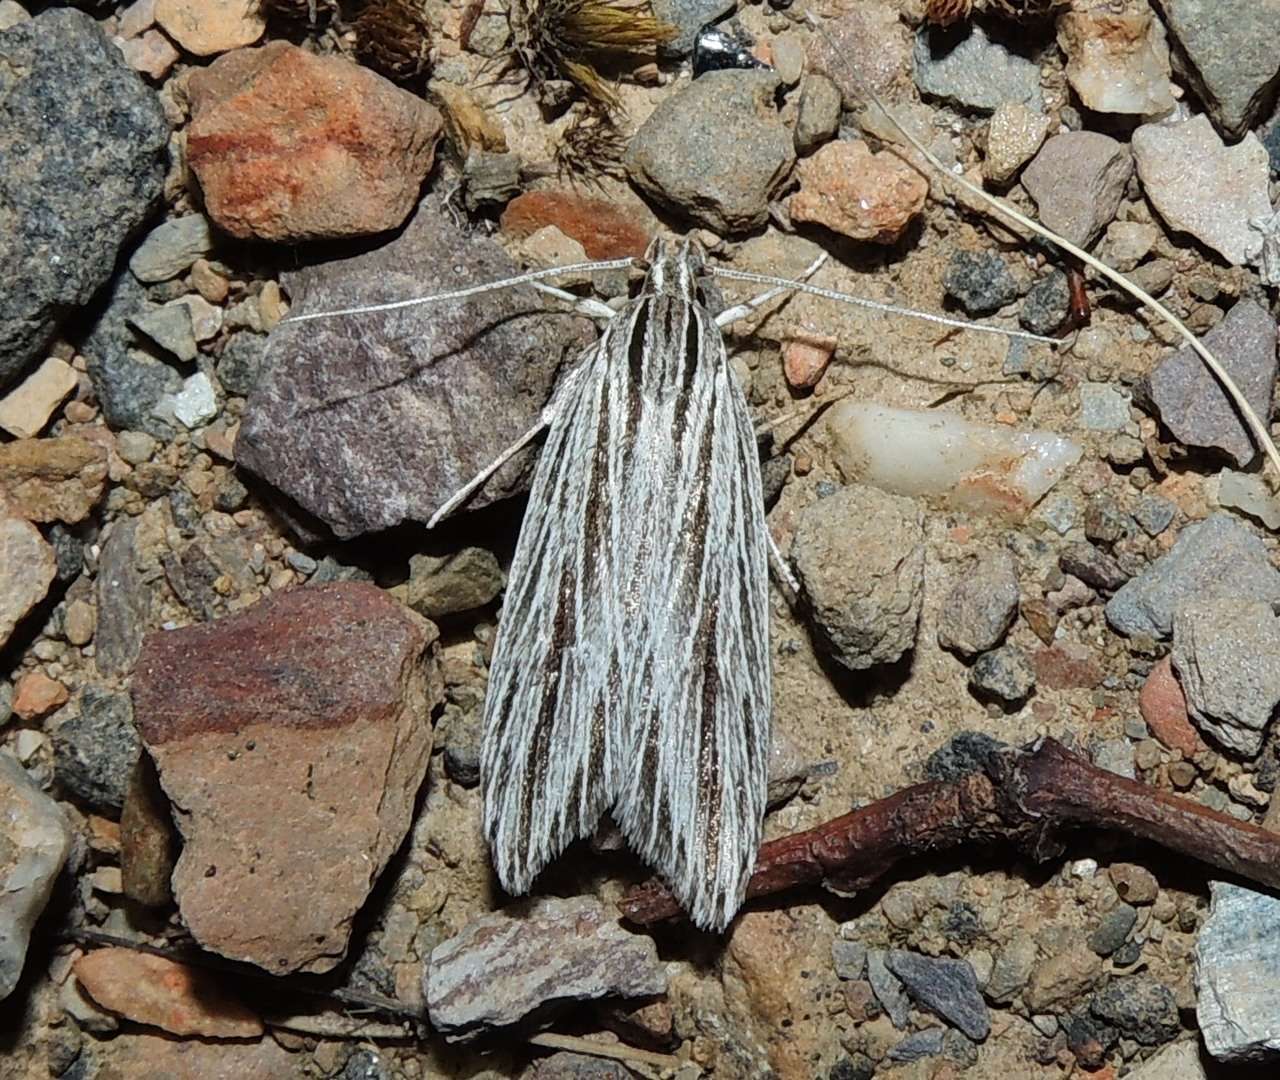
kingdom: Animalia
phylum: Arthropoda
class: Insecta
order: Lepidoptera
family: Xyloryctidae
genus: Leistarcha
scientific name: Leistarcha scitissimella
